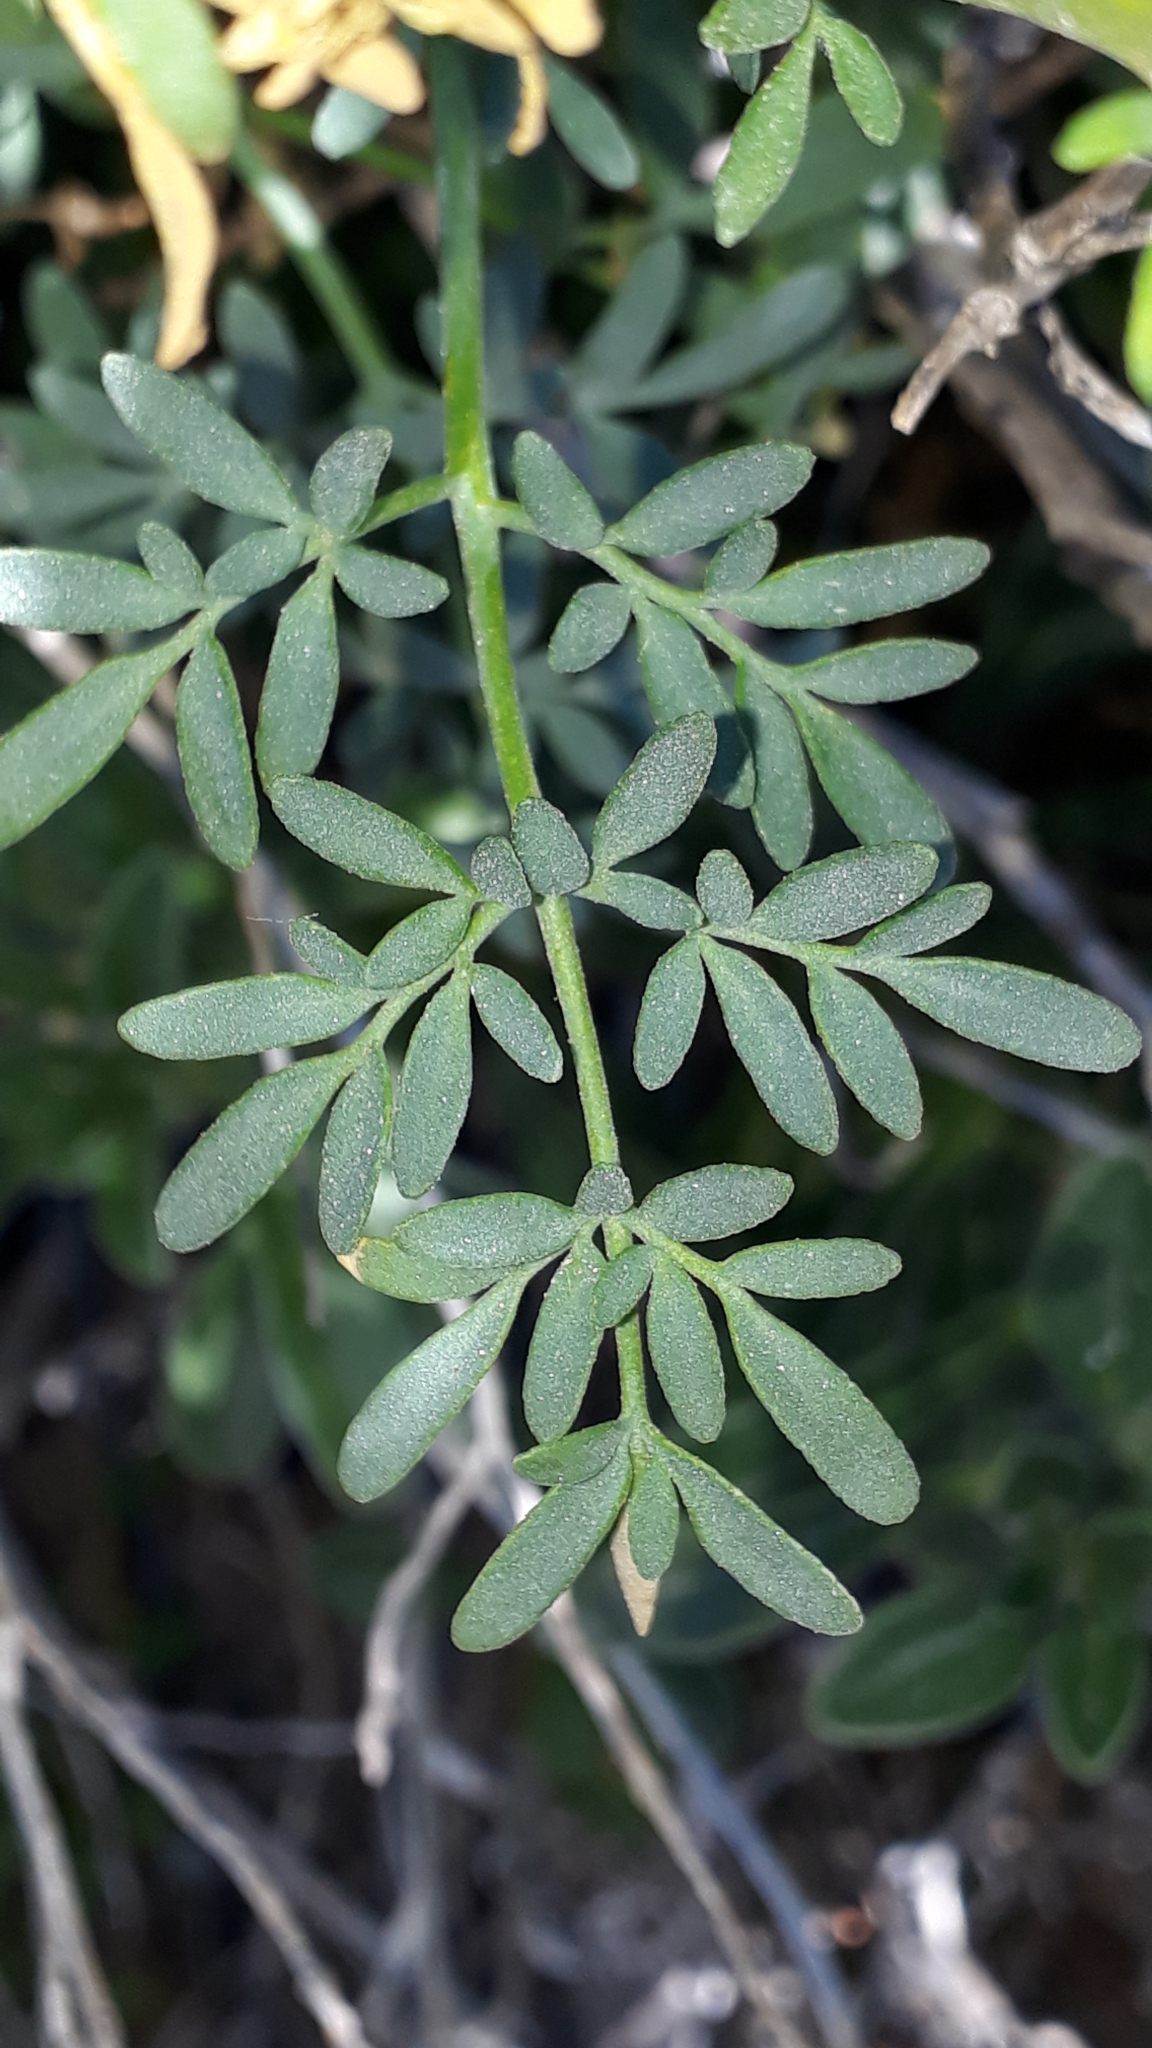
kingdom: Plantae
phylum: Tracheophyta
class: Magnoliopsida
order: Sapindales
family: Rutaceae
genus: Ruta
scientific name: Ruta chalepensis
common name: Fringed rue
